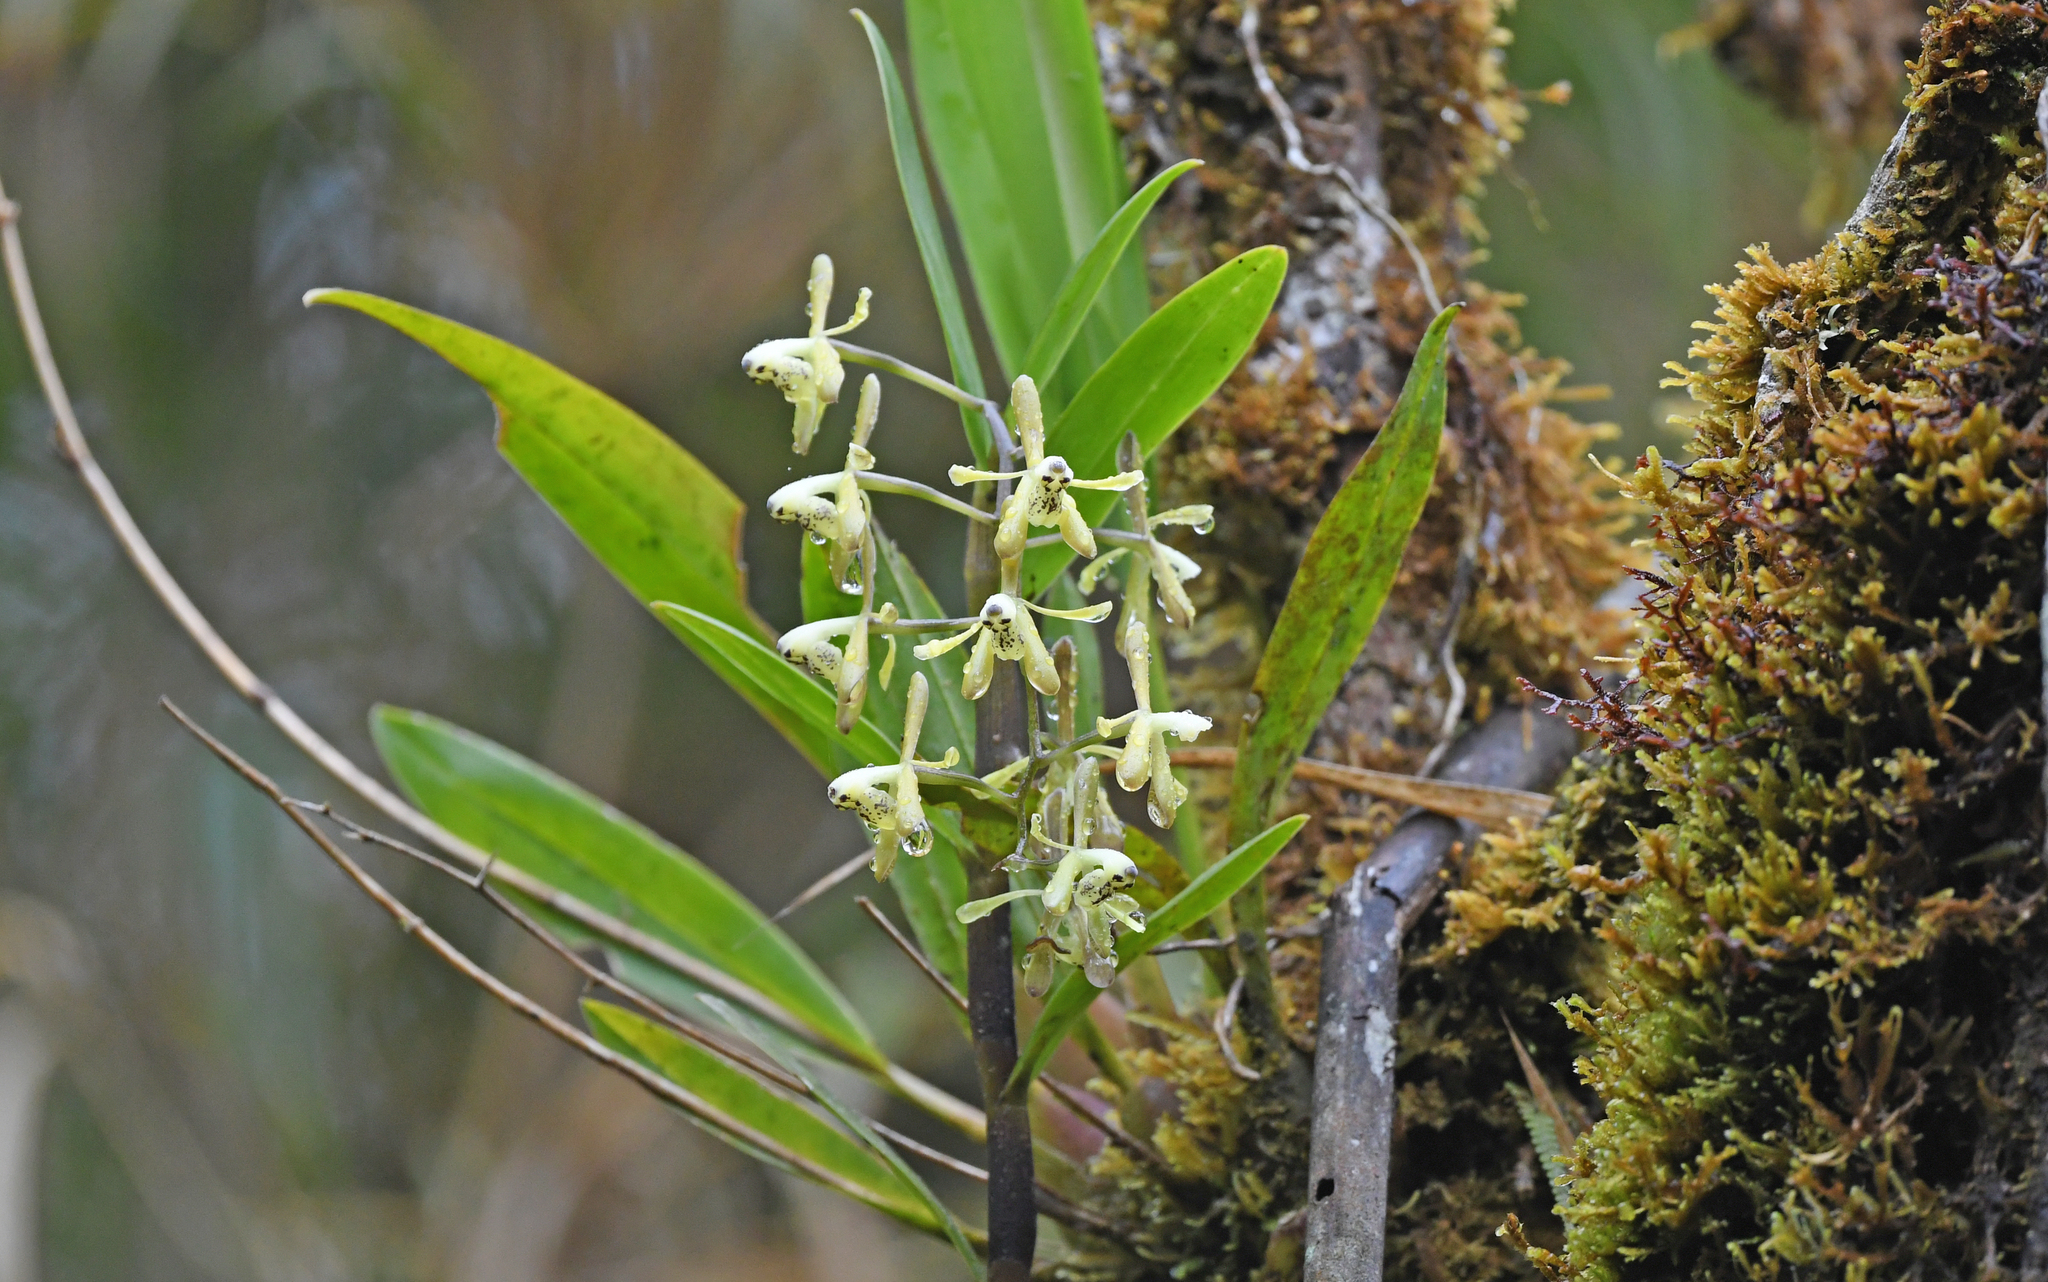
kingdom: Plantae
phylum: Tracheophyta
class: Liliopsida
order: Asparagales
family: Orchidaceae
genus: Epidendrum
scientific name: Epidendrum erosum
